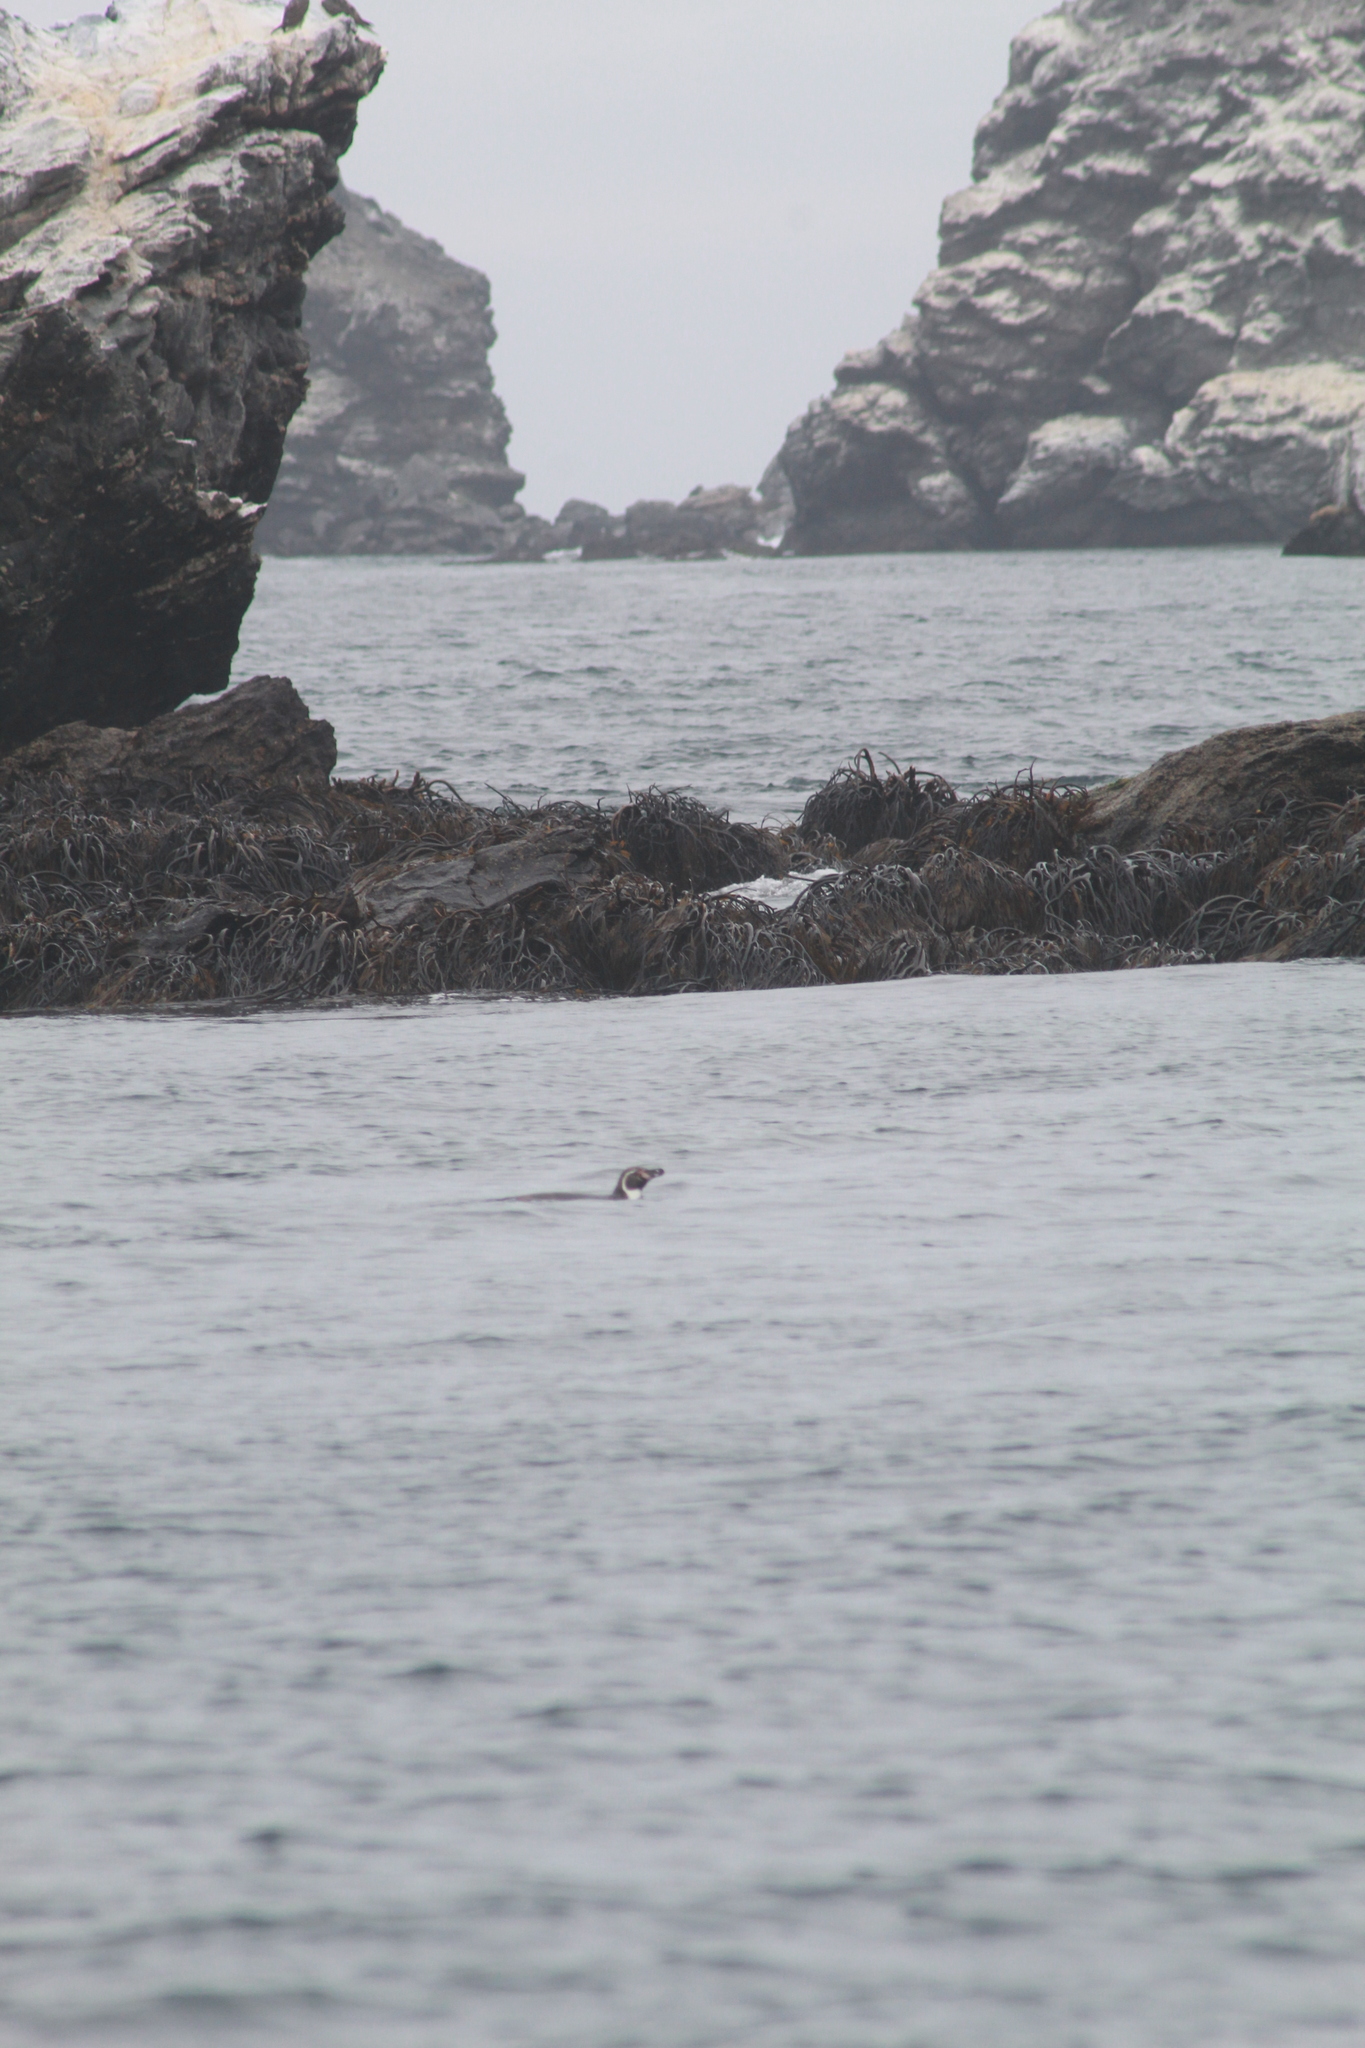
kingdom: Animalia
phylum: Chordata
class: Aves
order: Sphenisciformes
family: Spheniscidae
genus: Spheniscus
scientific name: Spheniscus humboldti
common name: Humboldt penguin
